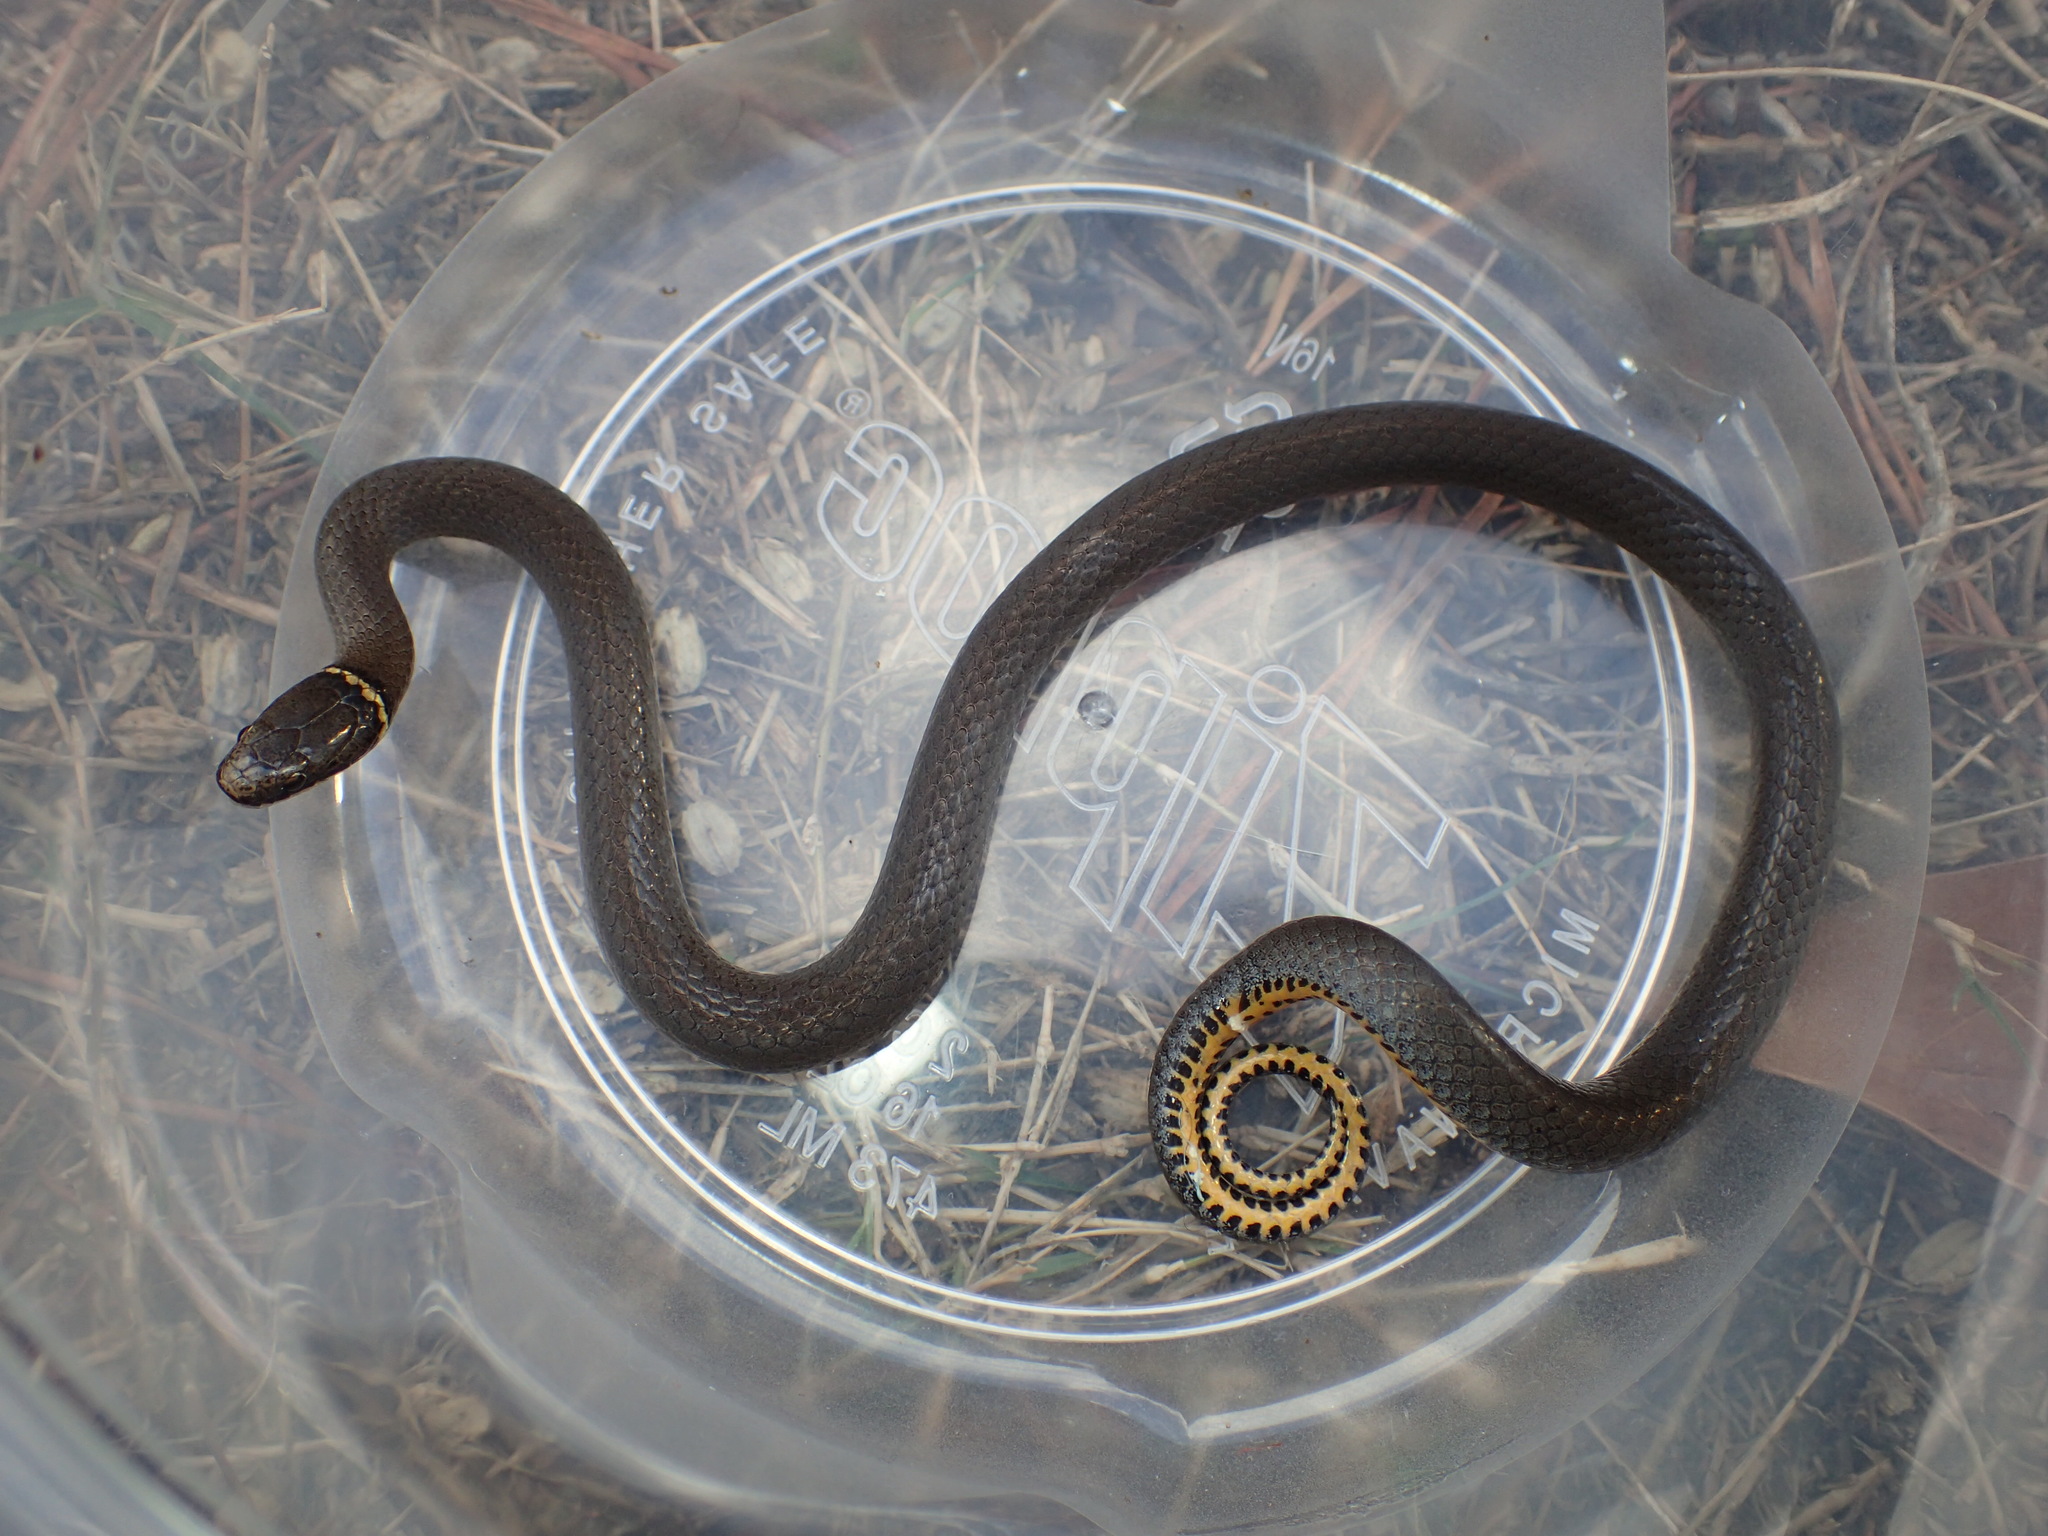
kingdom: Animalia
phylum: Chordata
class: Squamata
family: Colubridae
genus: Diadophis
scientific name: Diadophis punctatus
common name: Ringneck snake
